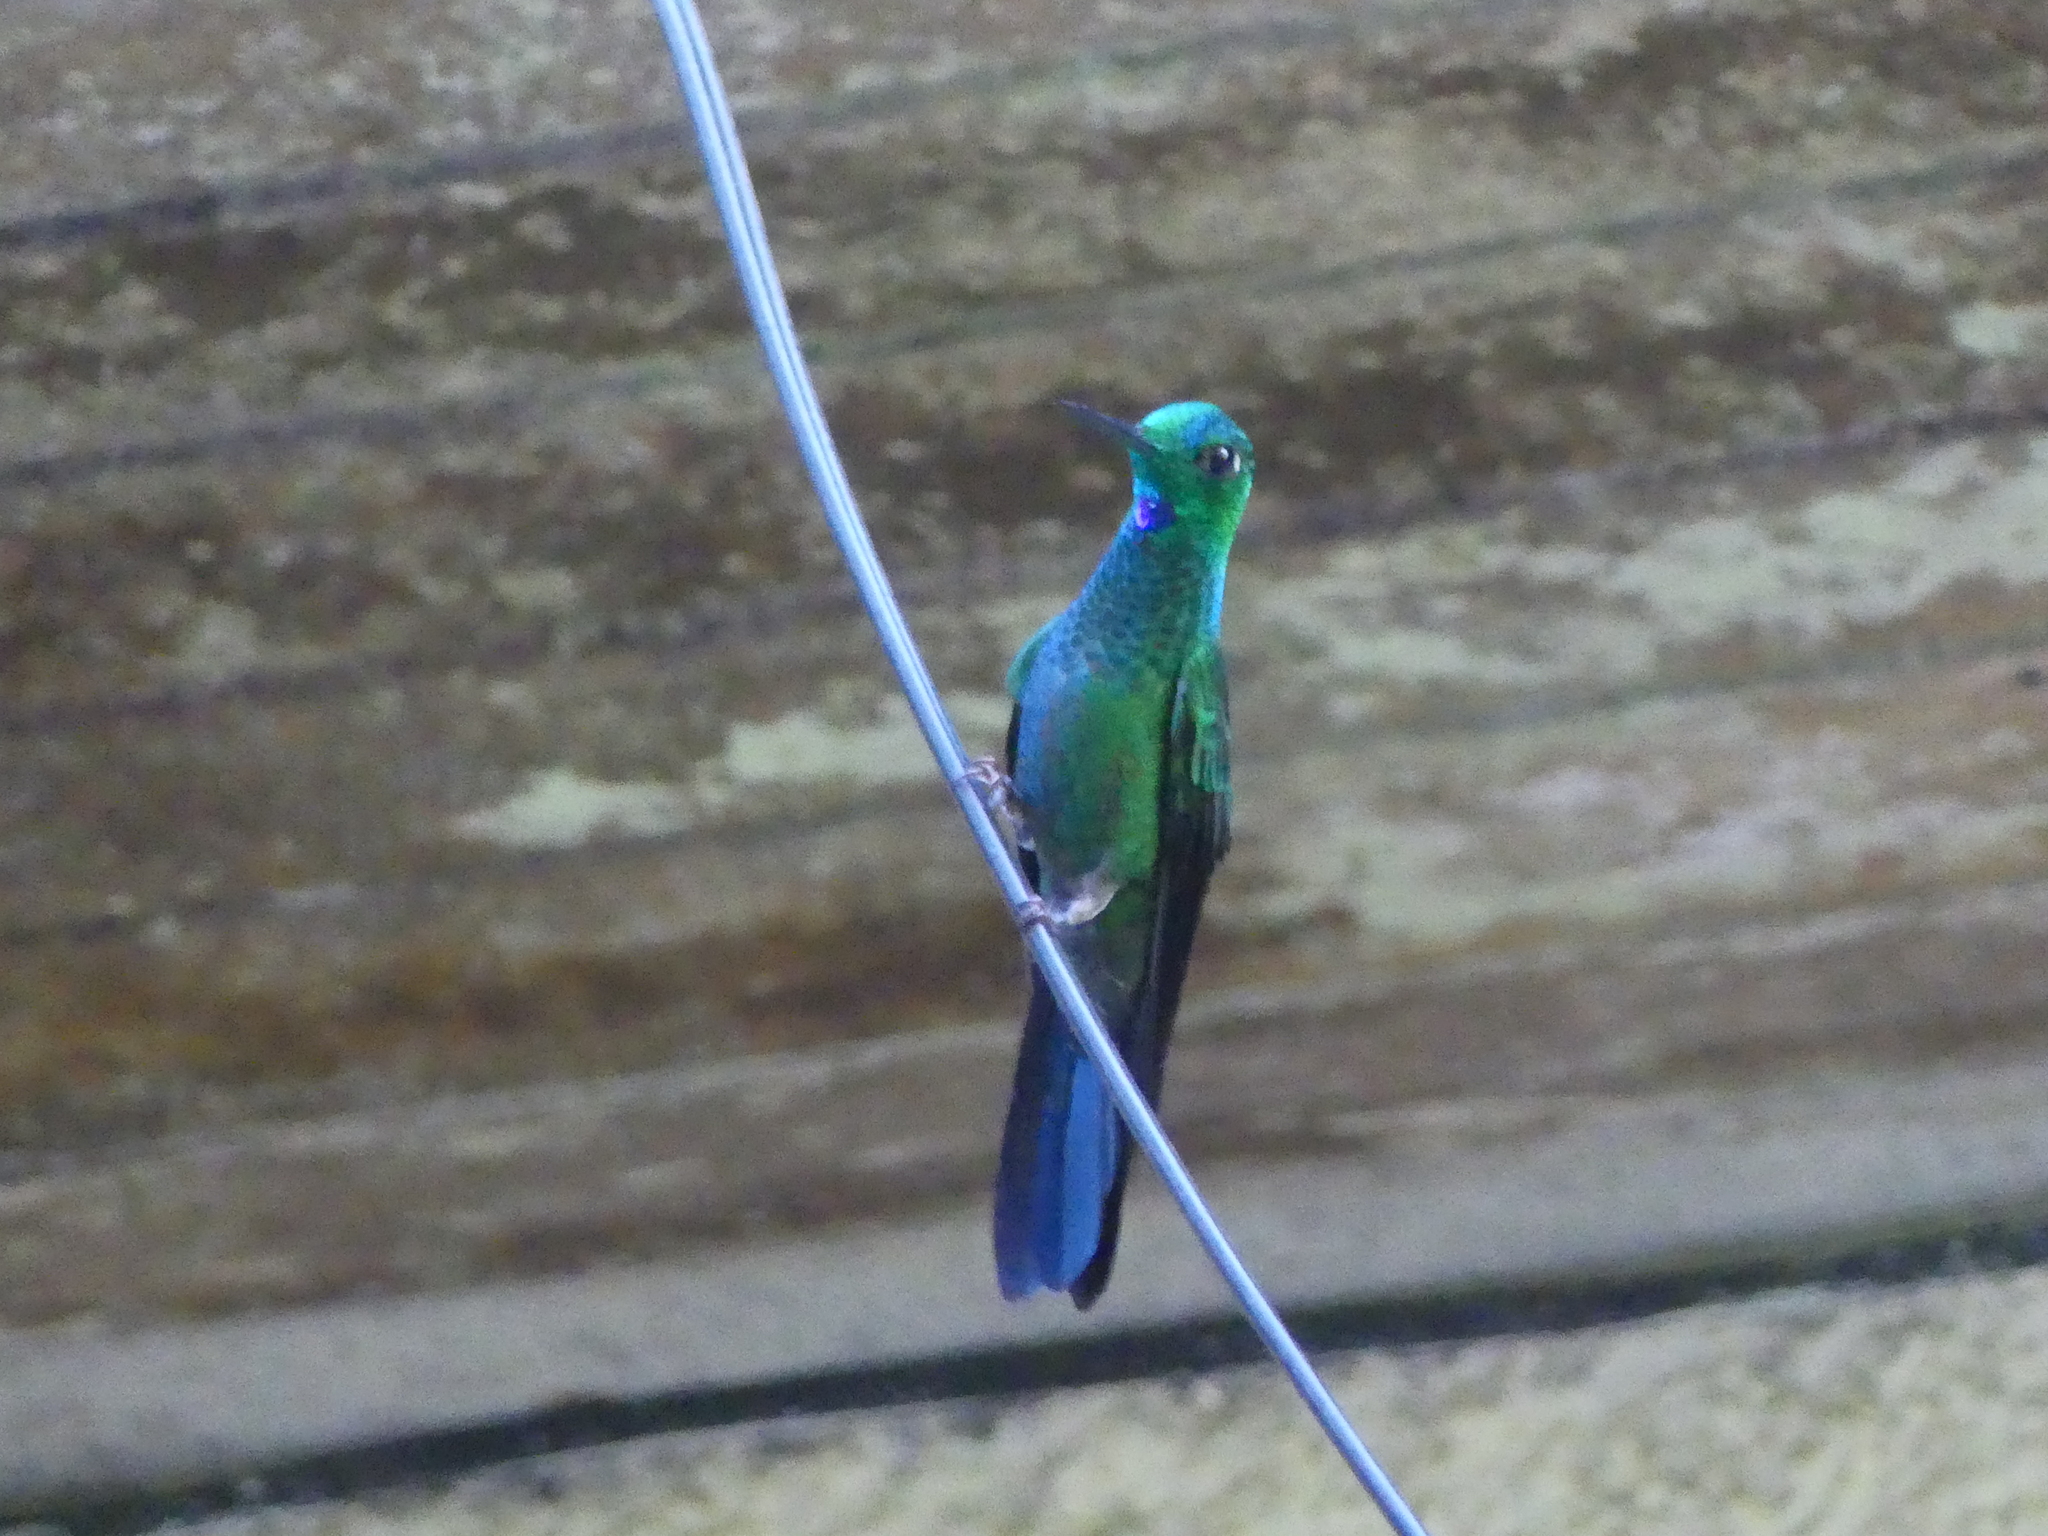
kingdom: Animalia
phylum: Chordata
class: Aves
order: Apodiformes
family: Trochilidae
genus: Heliodoxa
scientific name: Heliodoxa jacula
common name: Green-crowned brilliant
